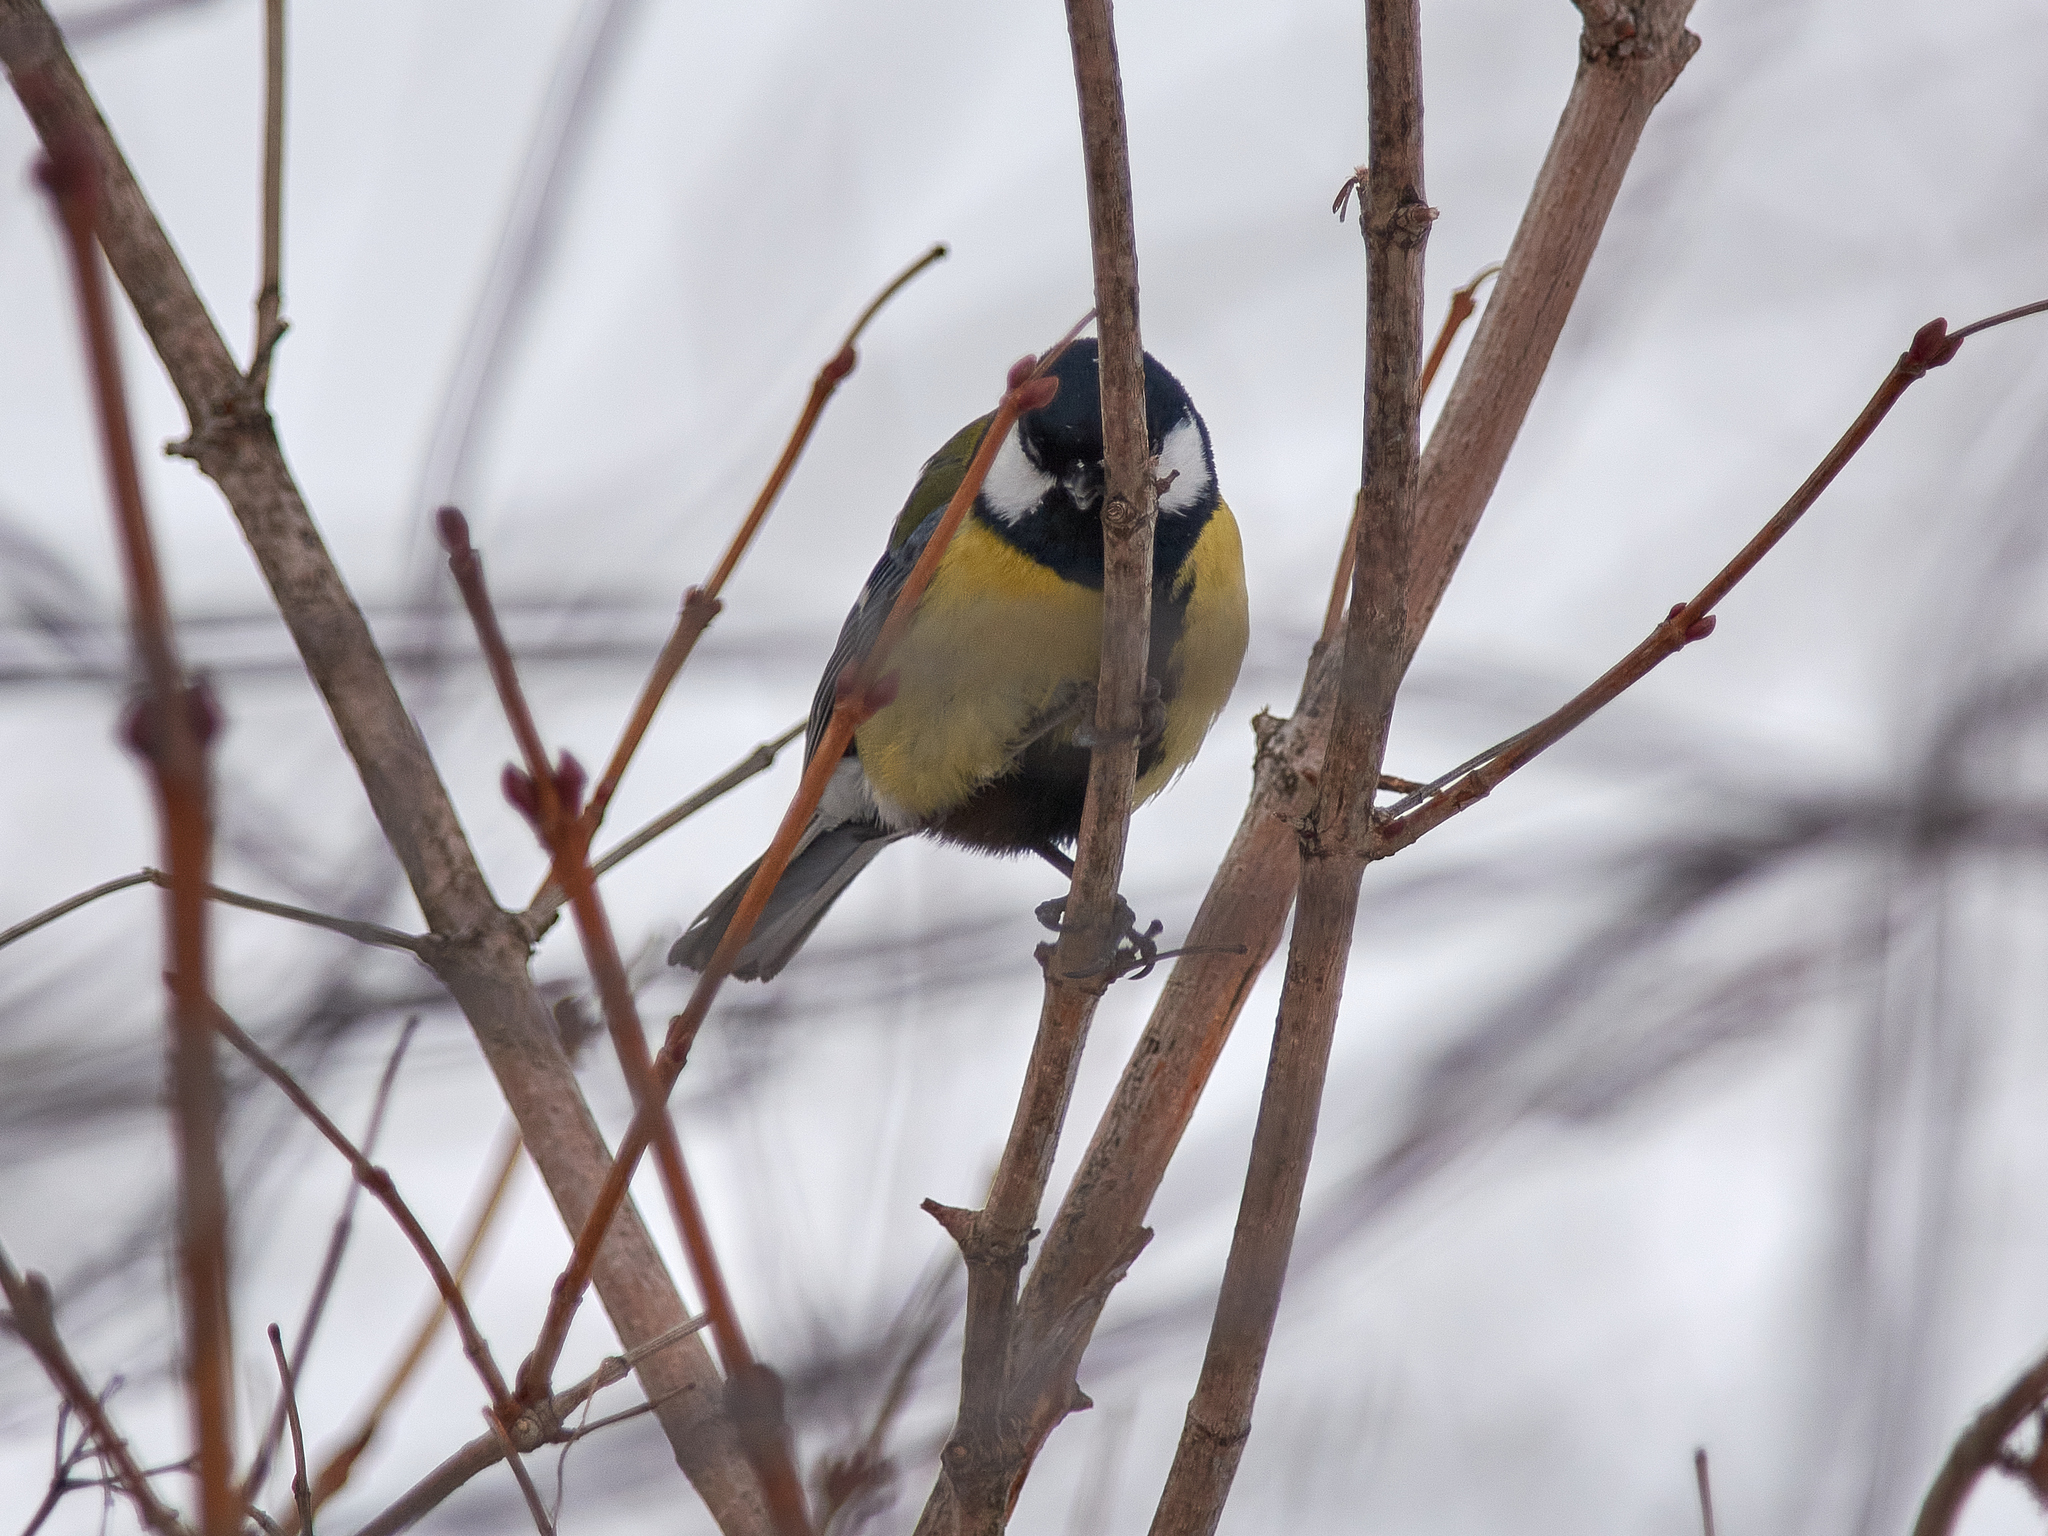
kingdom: Animalia
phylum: Chordata
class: Aves
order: Passeriformes
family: Paridae
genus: Parus
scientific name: Parus major
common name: Great tit
